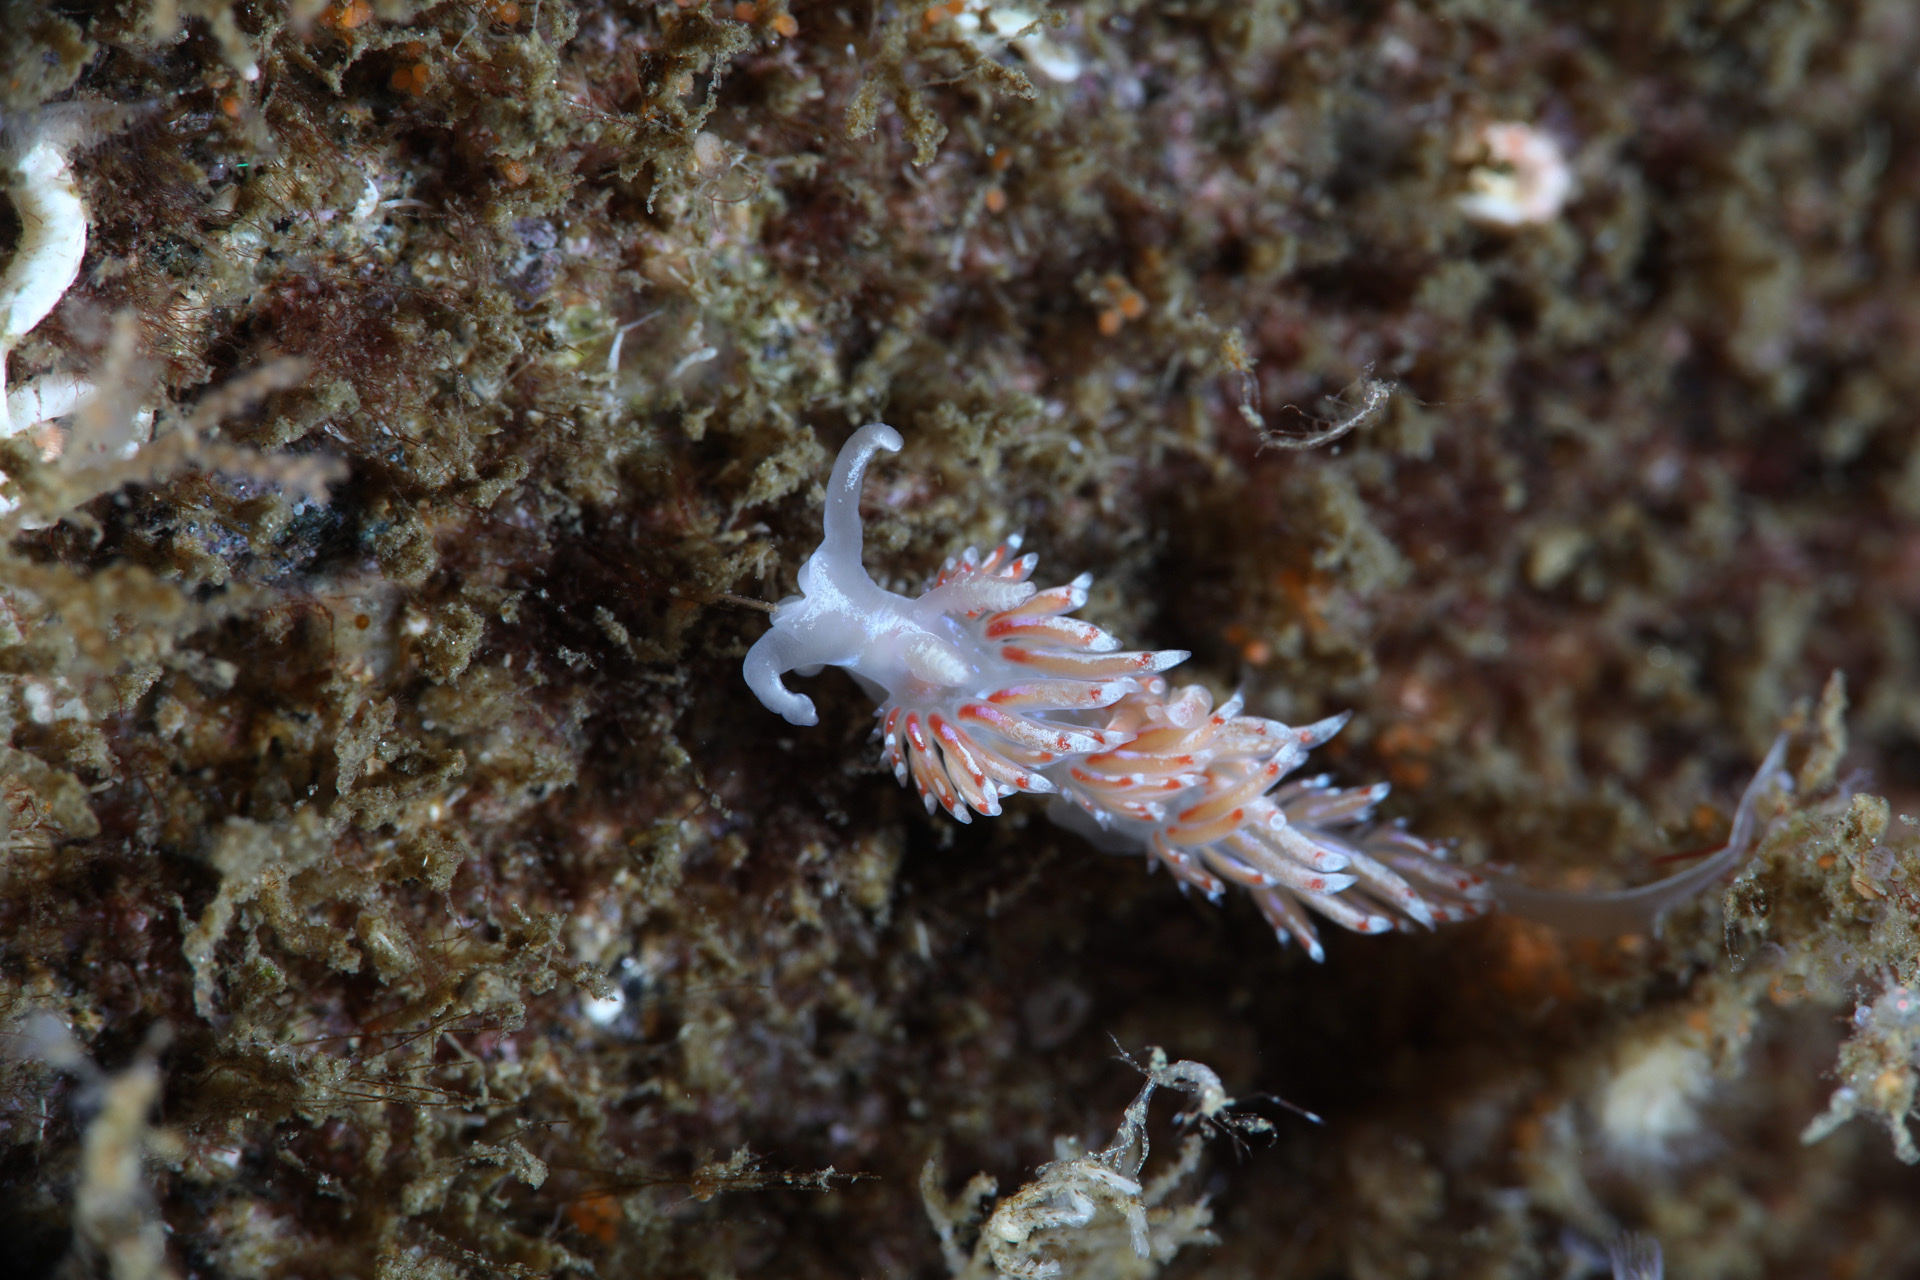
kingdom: Animalia
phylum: Mollusca
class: Gastropoda
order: Nudibranchia
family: Facelinidae
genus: Facelina
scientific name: Facelina auriculata
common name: Slender facelina
